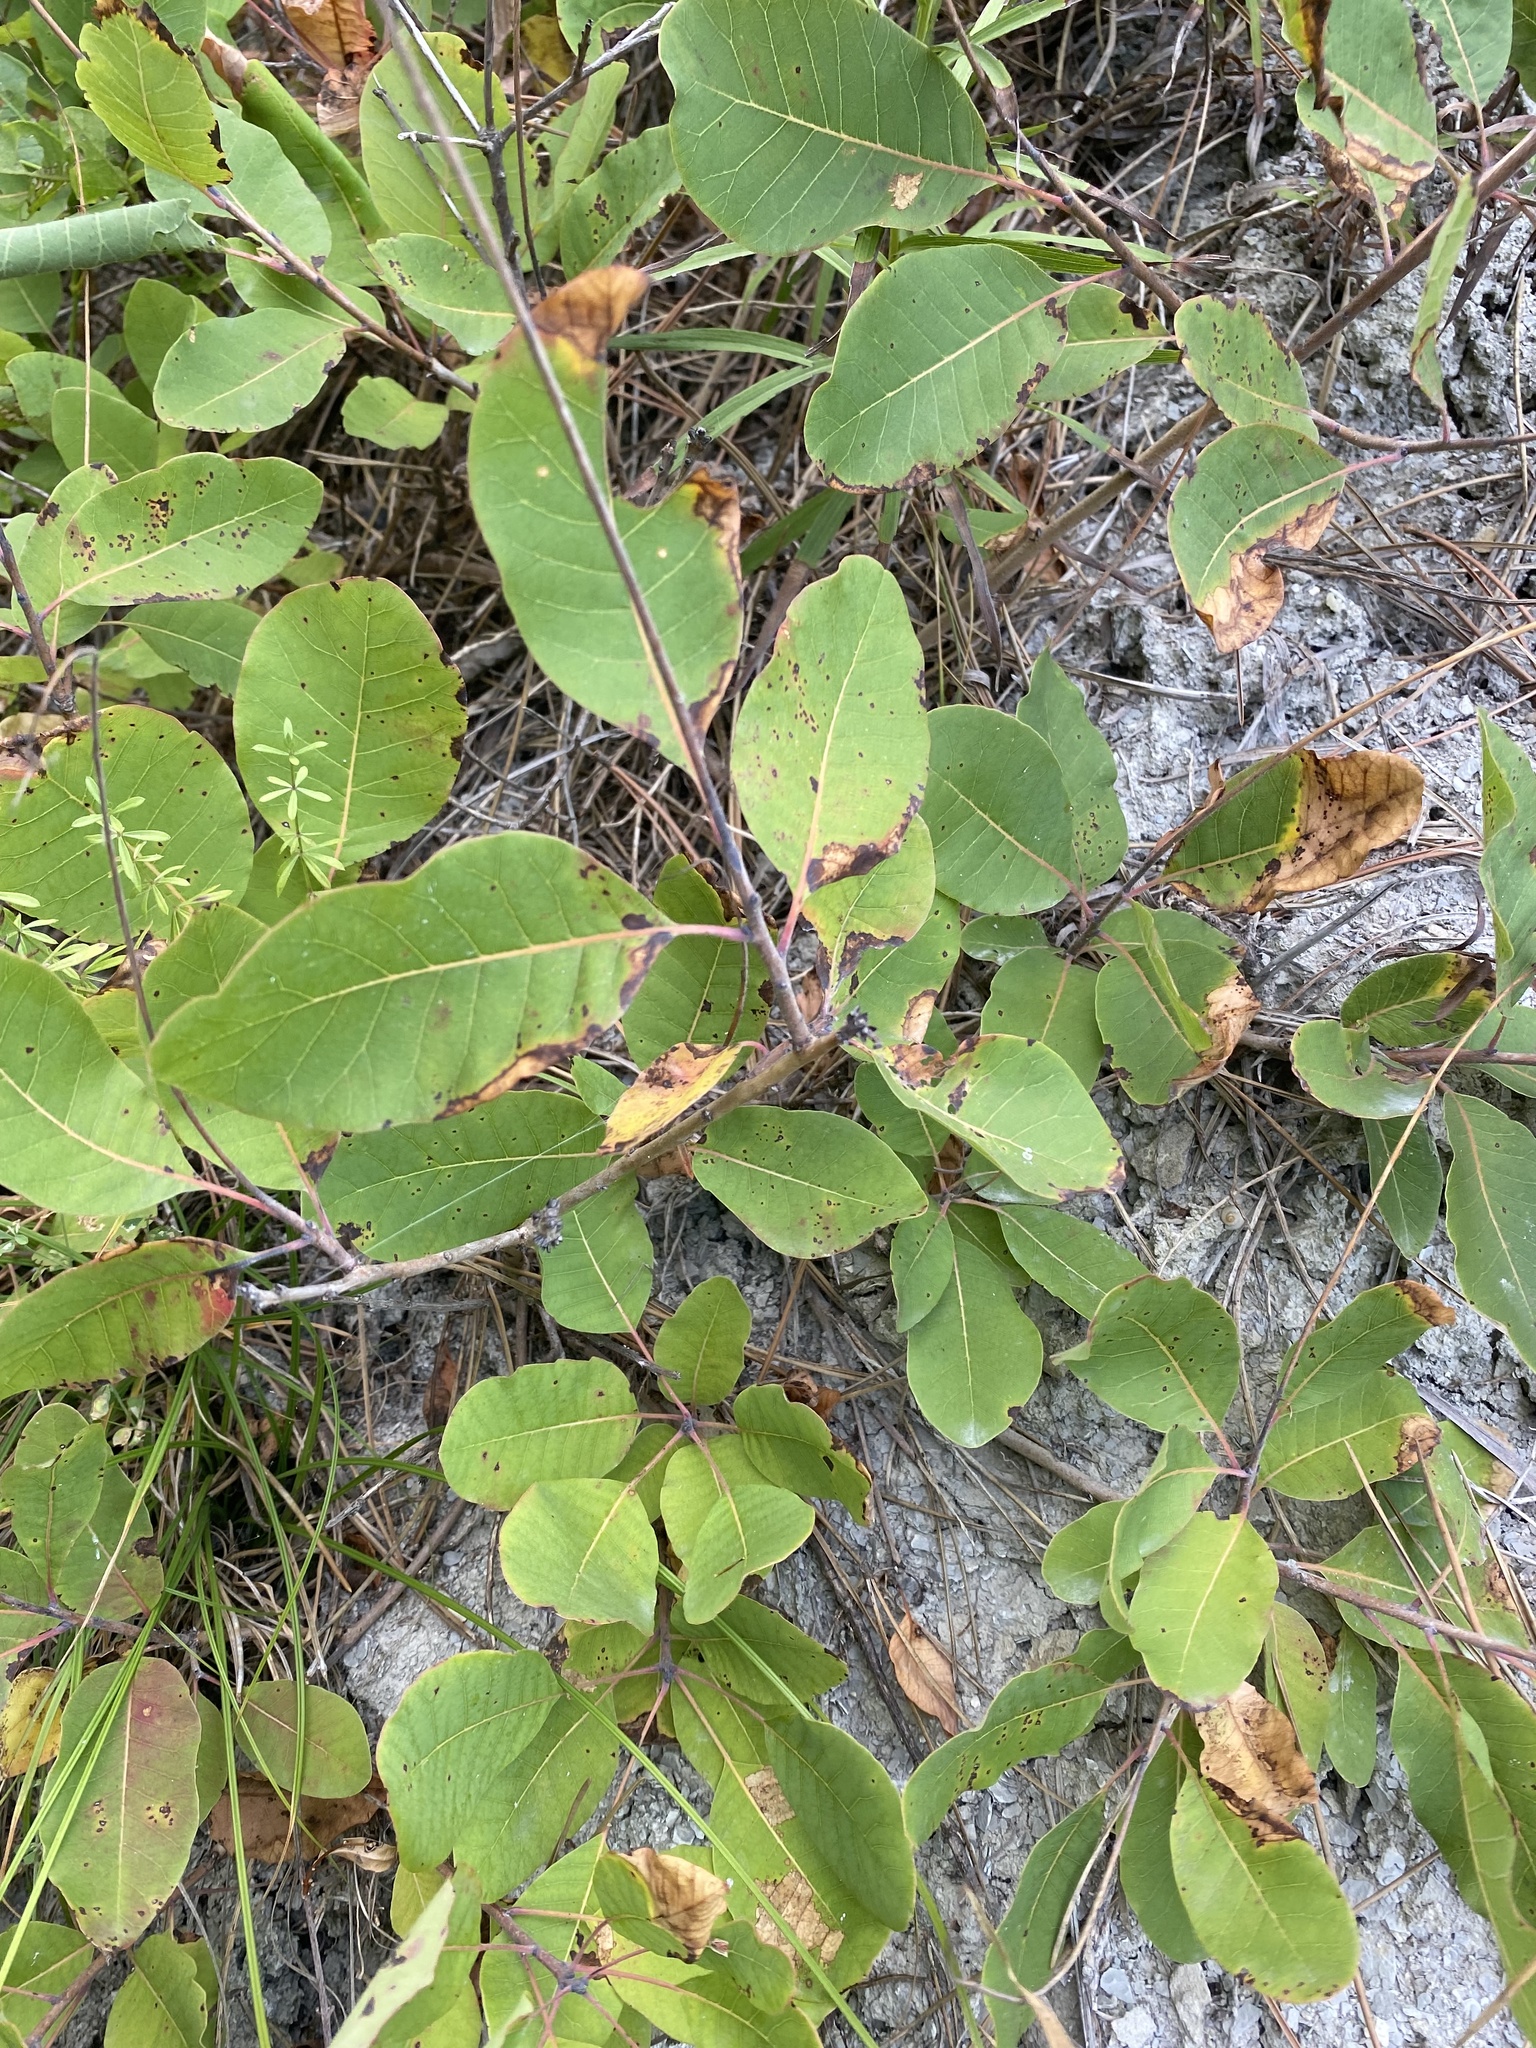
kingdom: Plantae
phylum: Tracheophyta
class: Magnoliopsida
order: Sapindales
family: Anacardiaceae
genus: Cotinus
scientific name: Cotinus coggygria
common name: Smoke-tree
